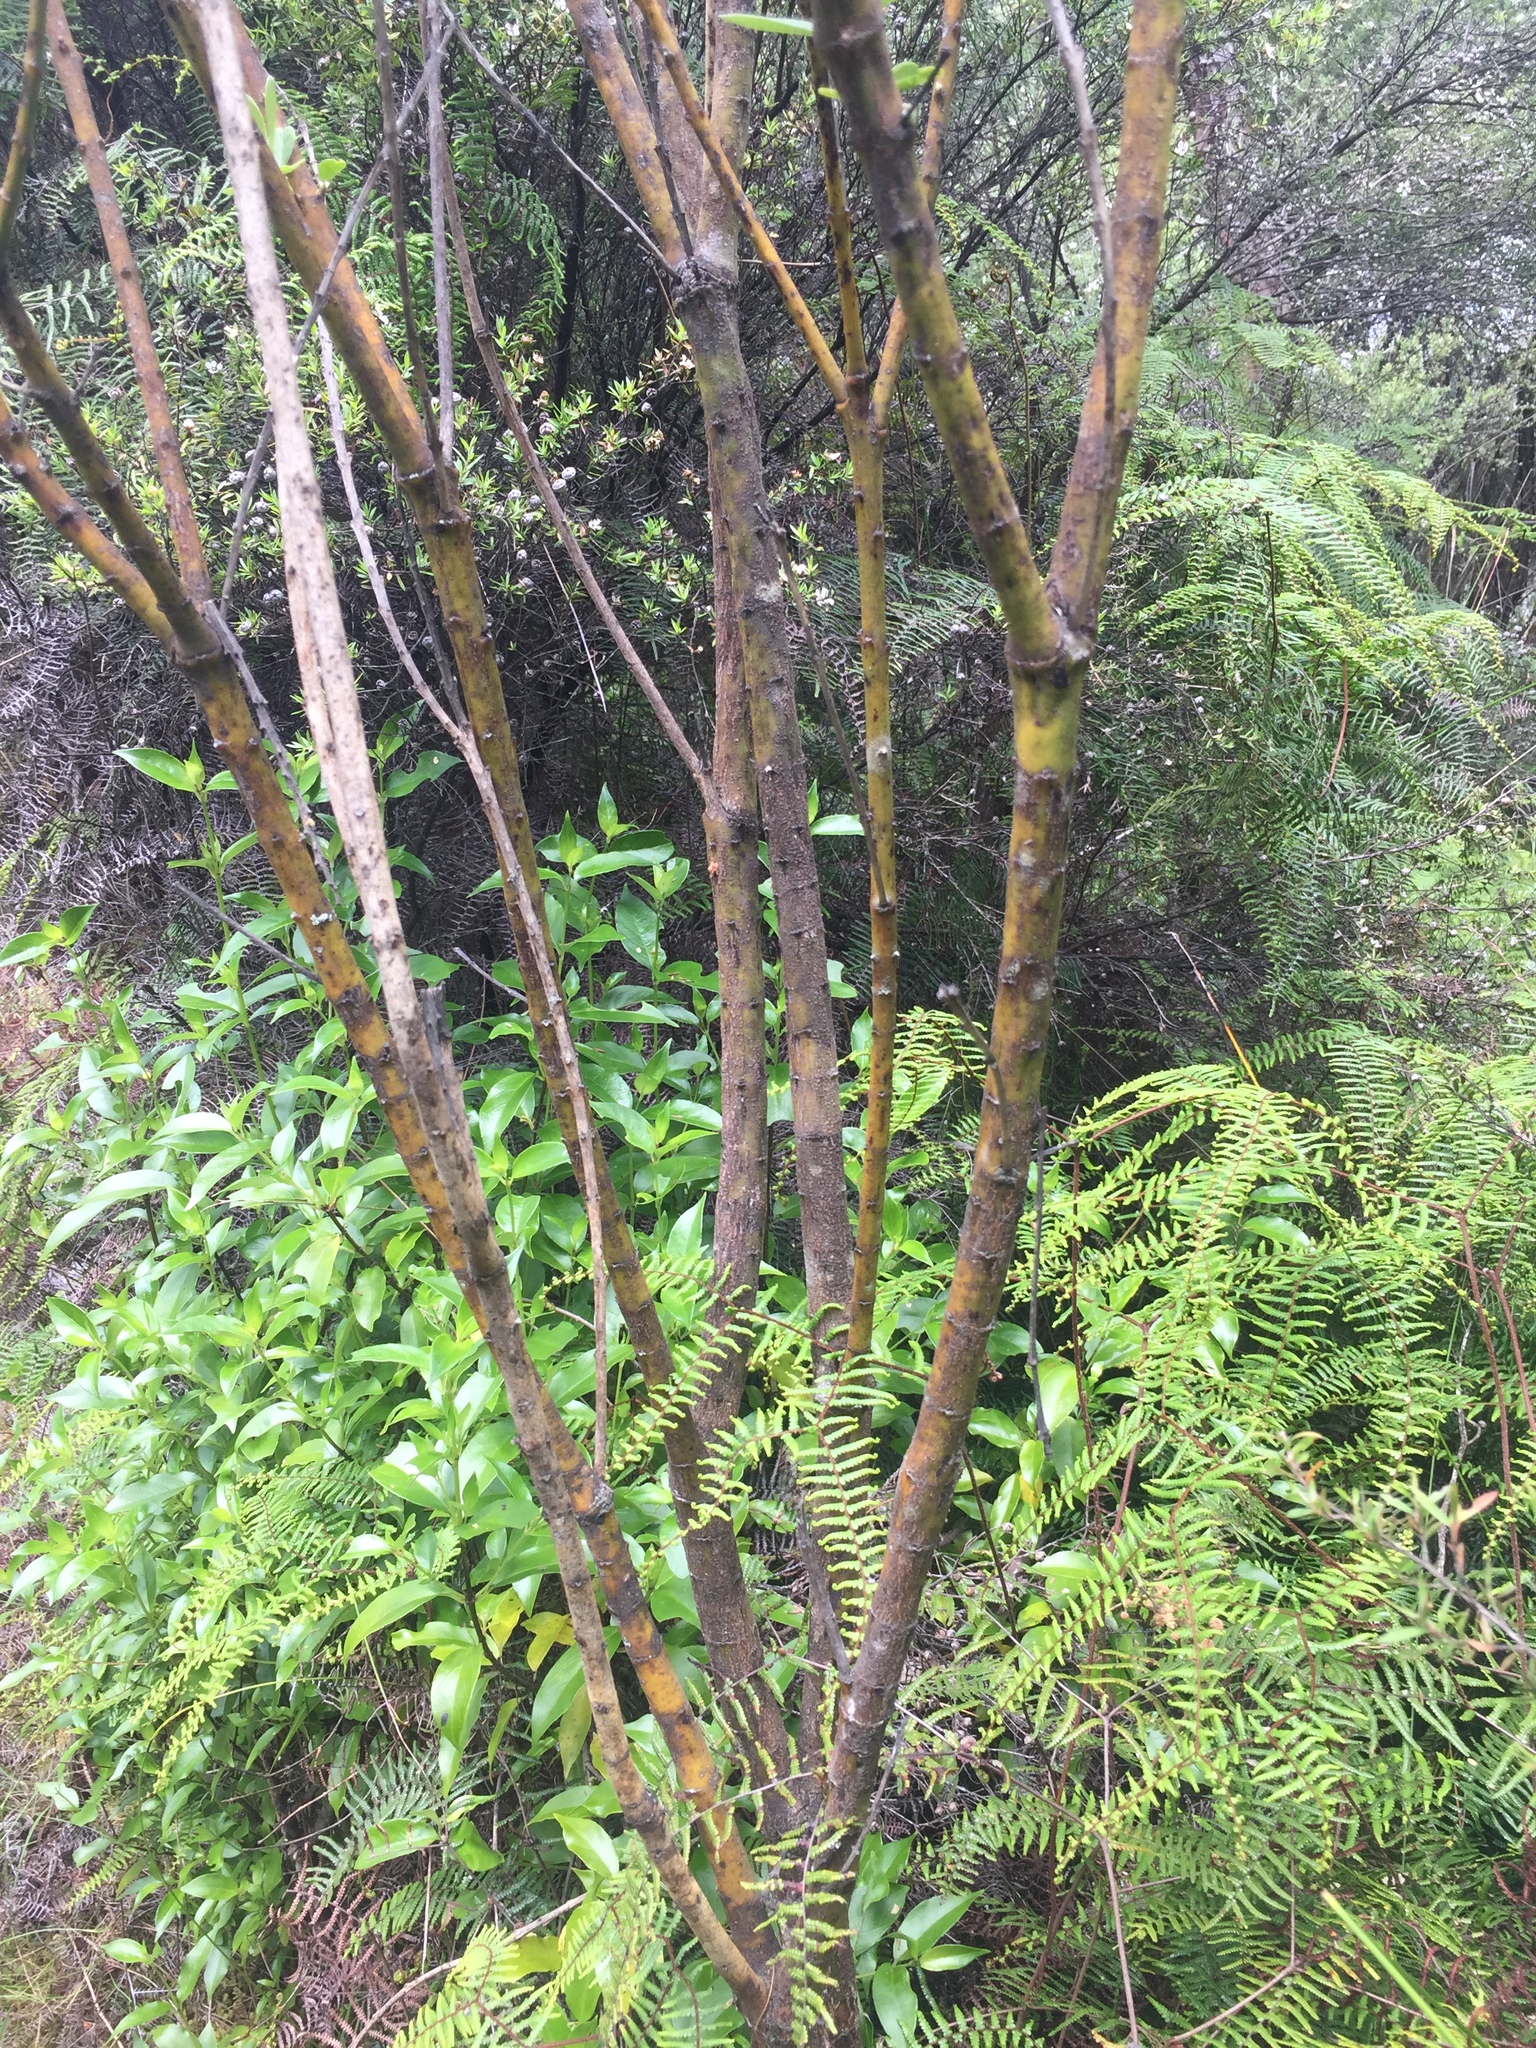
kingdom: Plantae
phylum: Tracheophyta
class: Magnoliopsida
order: Fabales
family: Fabaceae
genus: Callistachys
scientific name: Callistachys lanceolata
